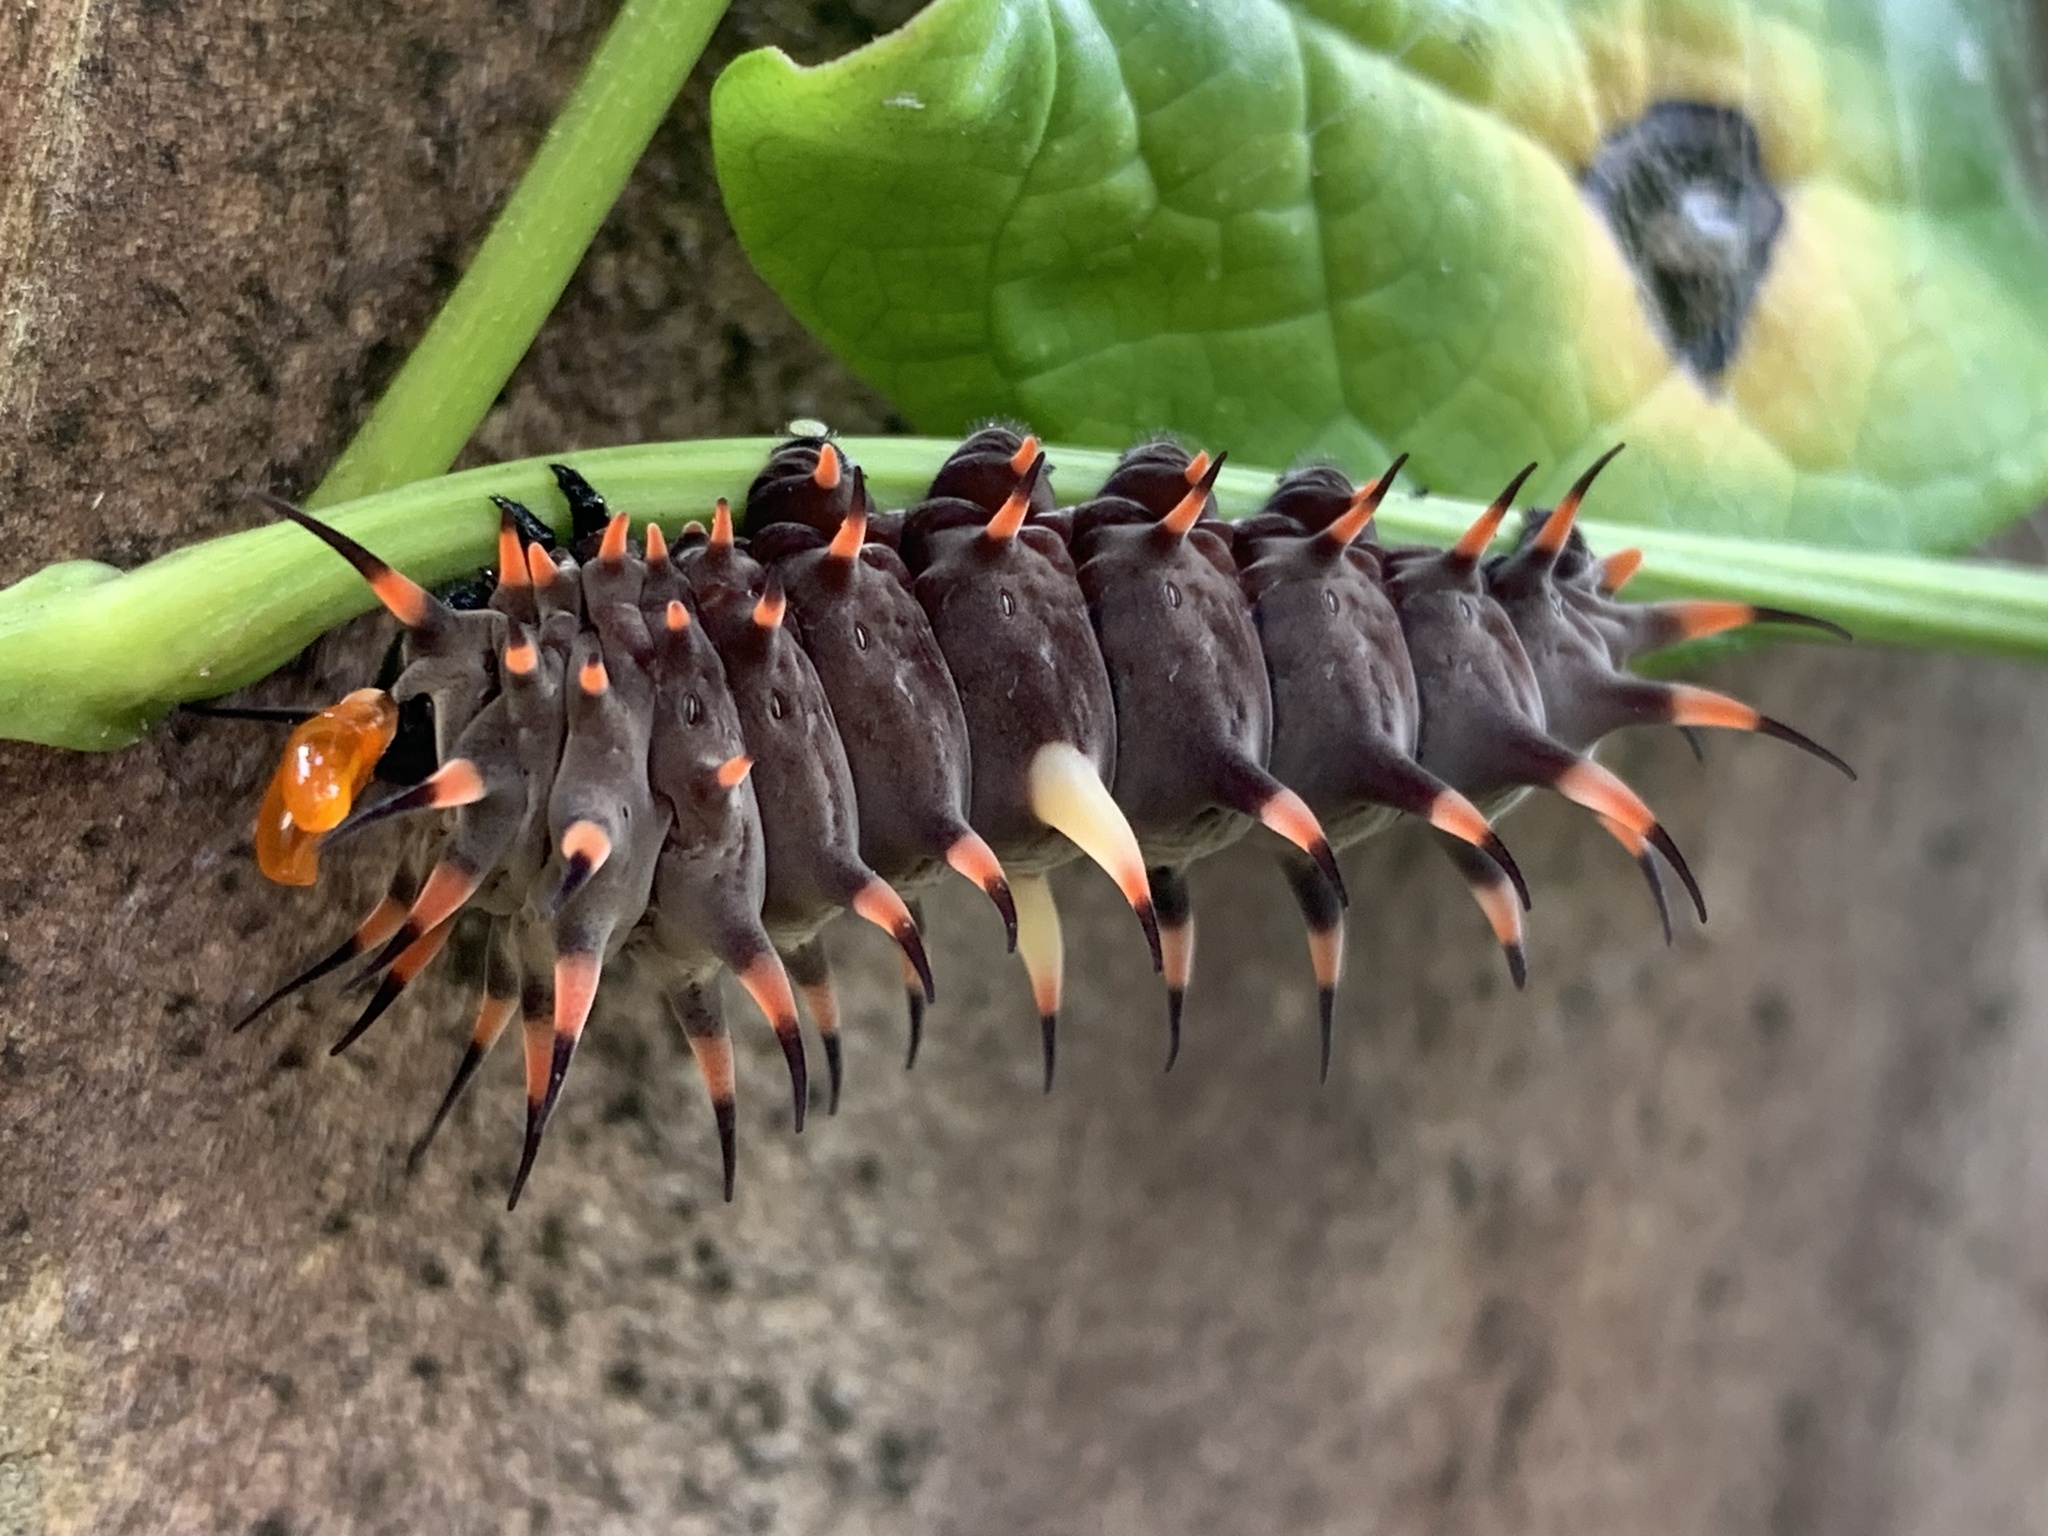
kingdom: Animalia
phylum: Arthropoda
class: Insecta
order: Lepidoptera
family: Papilionidae
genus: Ornithoptera
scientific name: Ornithoptera euphorion
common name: Cairns birdwing
